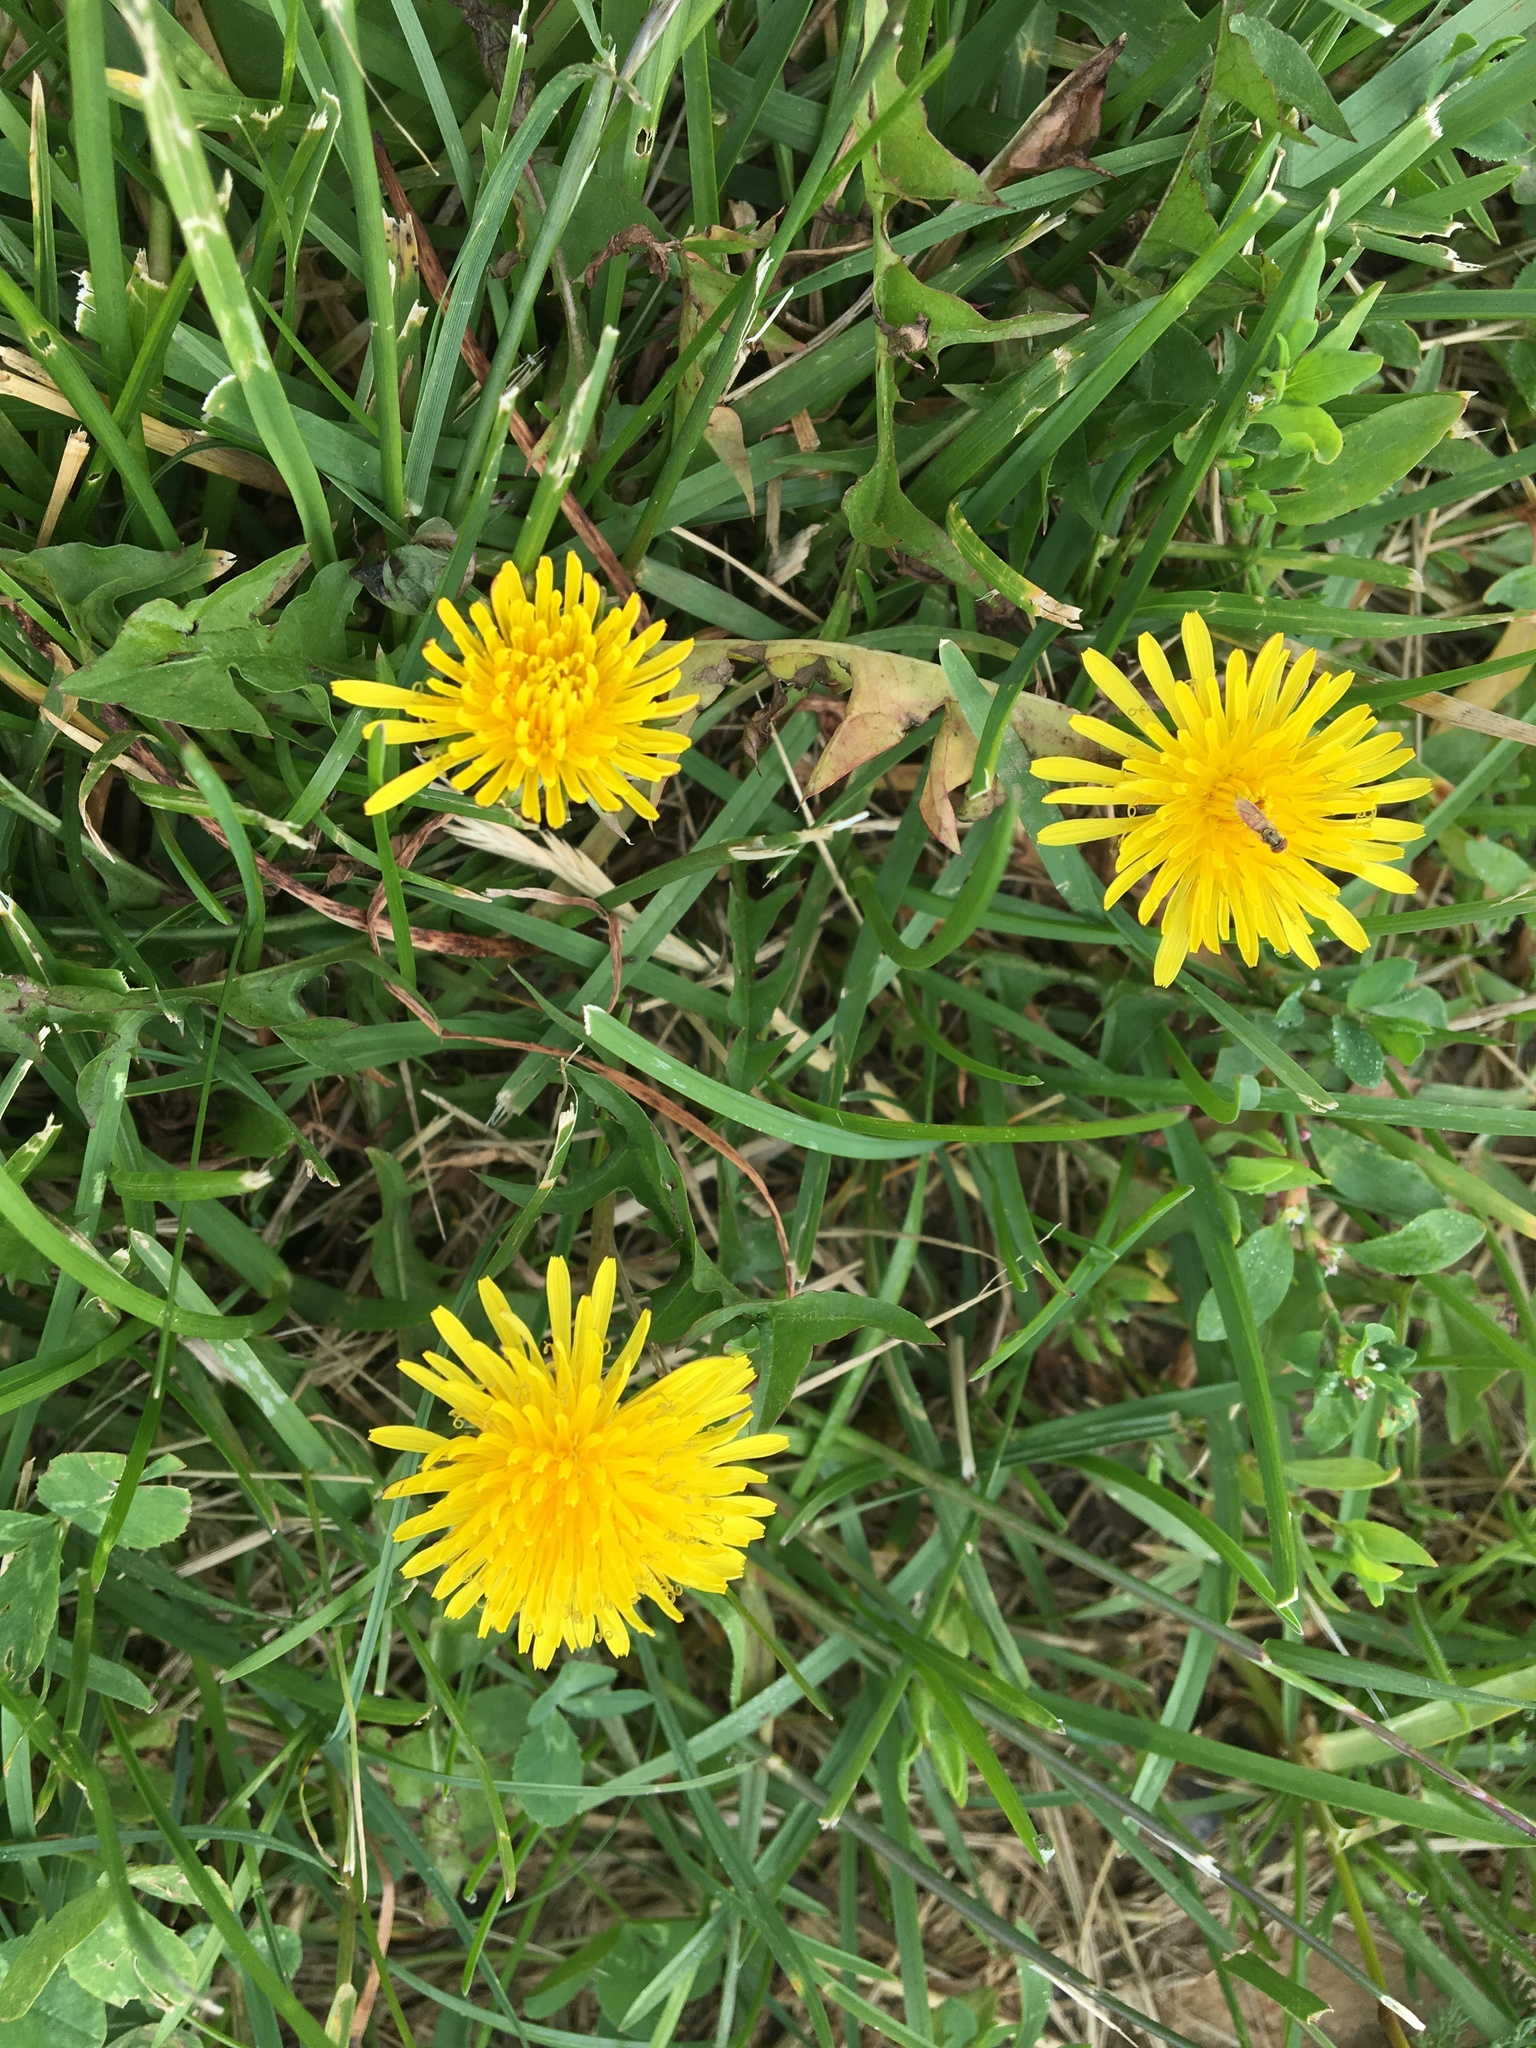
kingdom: Plantae
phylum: Tracheophyta
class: Magnoliopsida
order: Asterales
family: Asteraceae
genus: Taraxacum
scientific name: Taraxacum officinale
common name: Common dandelion
